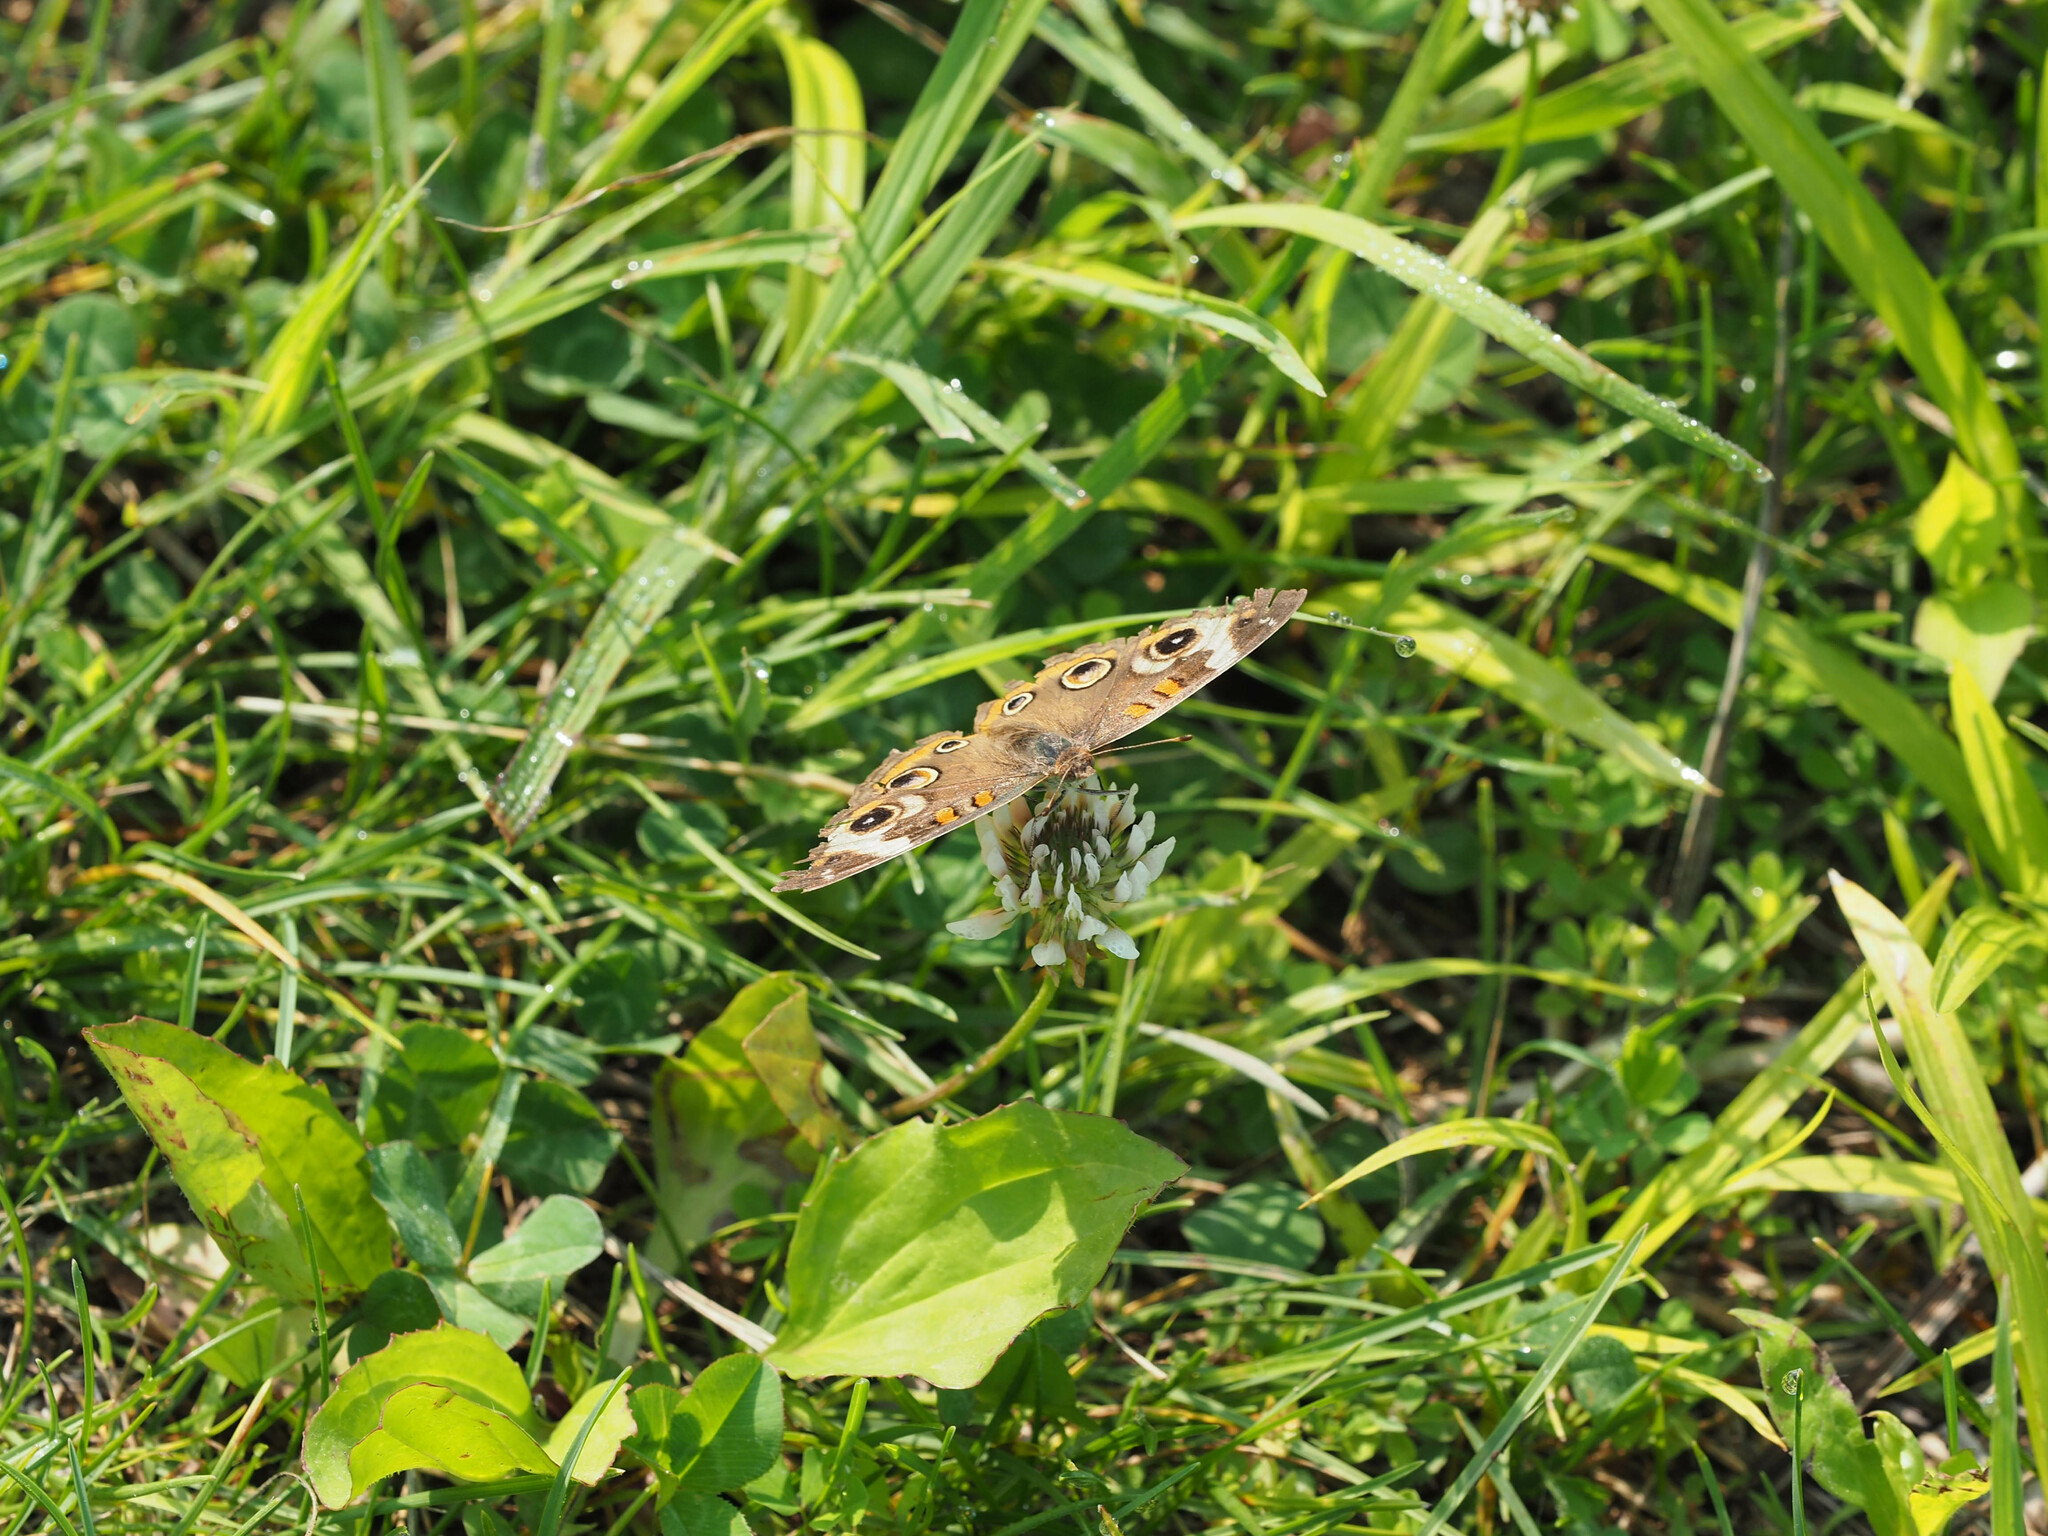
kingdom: Animalia
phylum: Arthropoda
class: Insecta
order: Lepidoptera
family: Nymphalidae
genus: Junonia
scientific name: Junonia coenia
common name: Common buckeye
